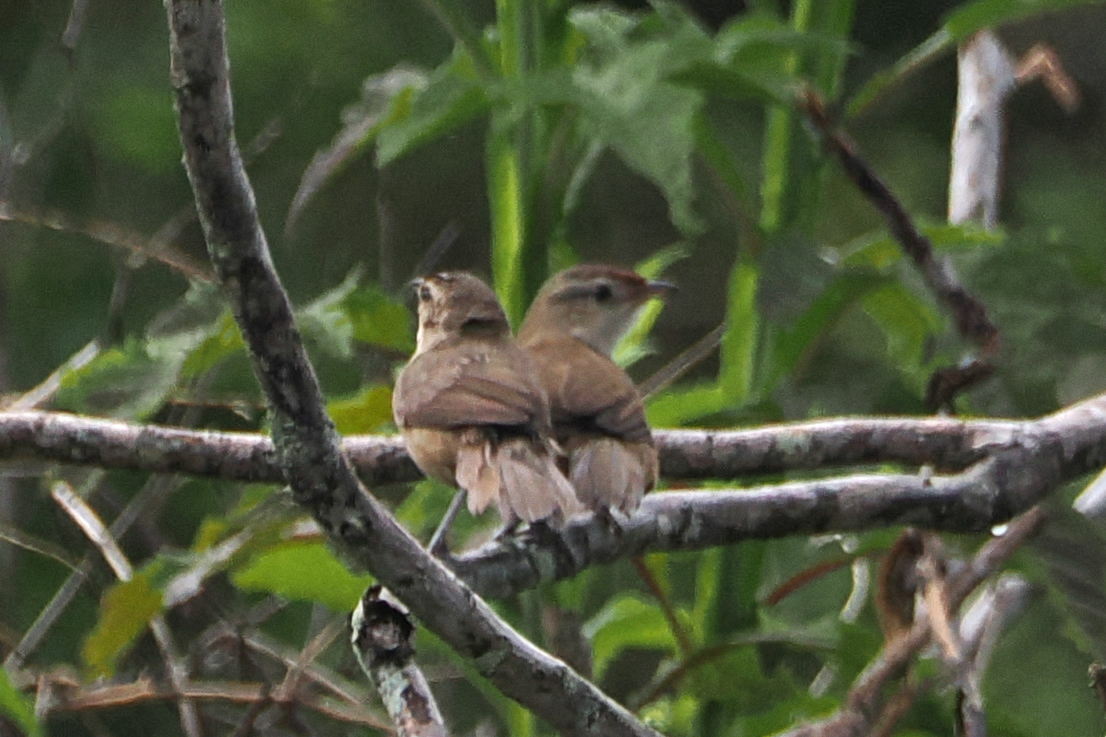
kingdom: Animalia
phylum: Chordata
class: Aves
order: Passeriformes
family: Furnariidae
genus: Phacellodomus
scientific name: Phacellodomus rufifrons
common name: Rufous-fronted thornbird
